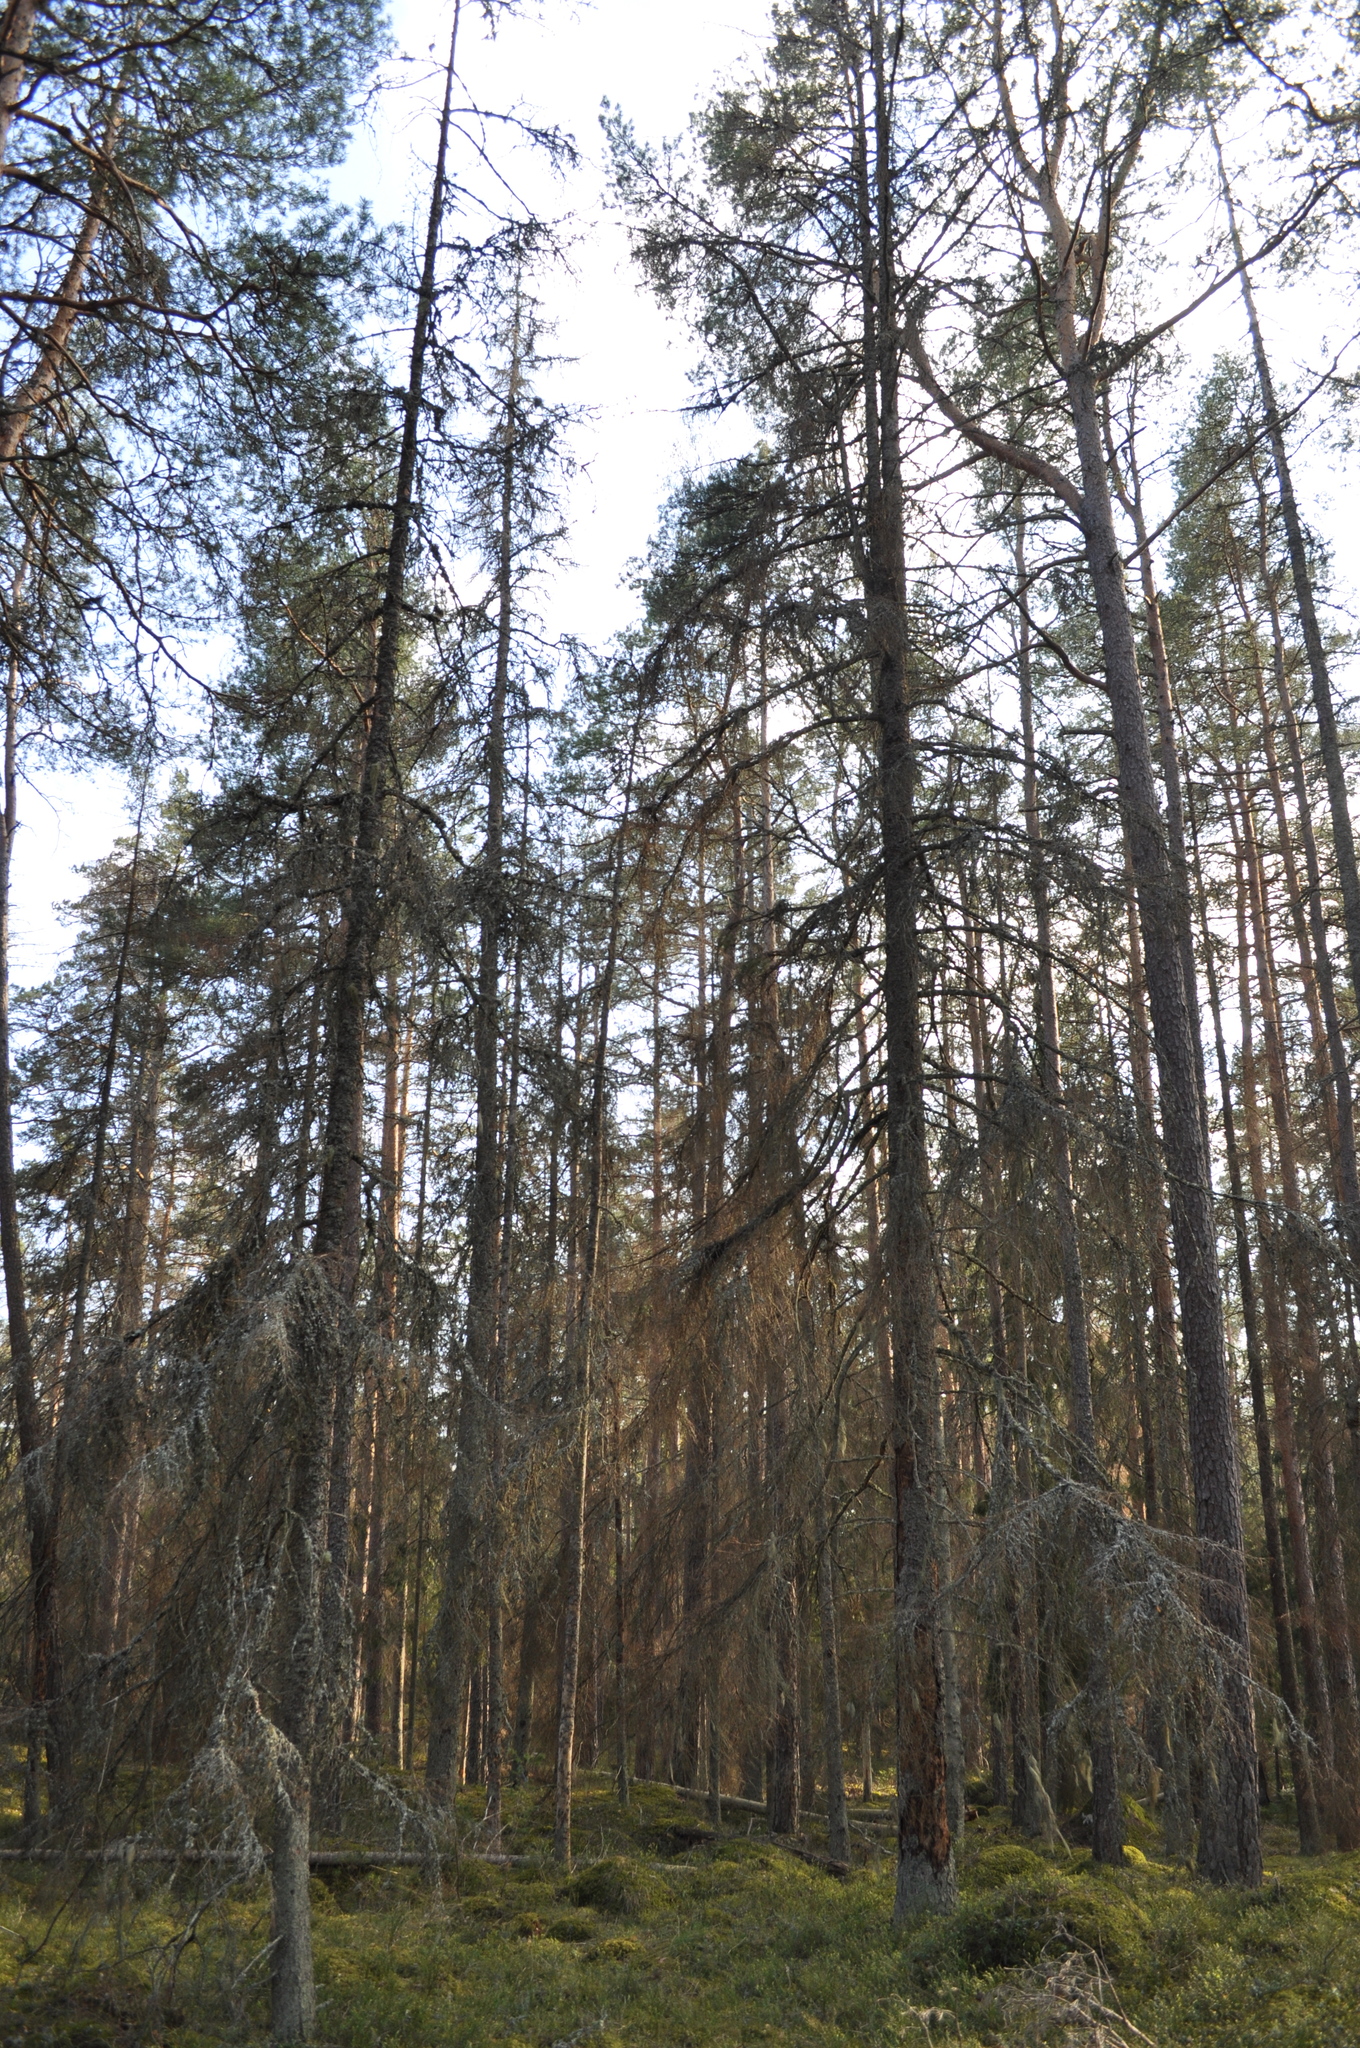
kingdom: Plantae
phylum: Tracheophyta
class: Pinopsida
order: Pinales
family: Pinaceae
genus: Picea
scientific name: Picea abies
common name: Norway spruce
